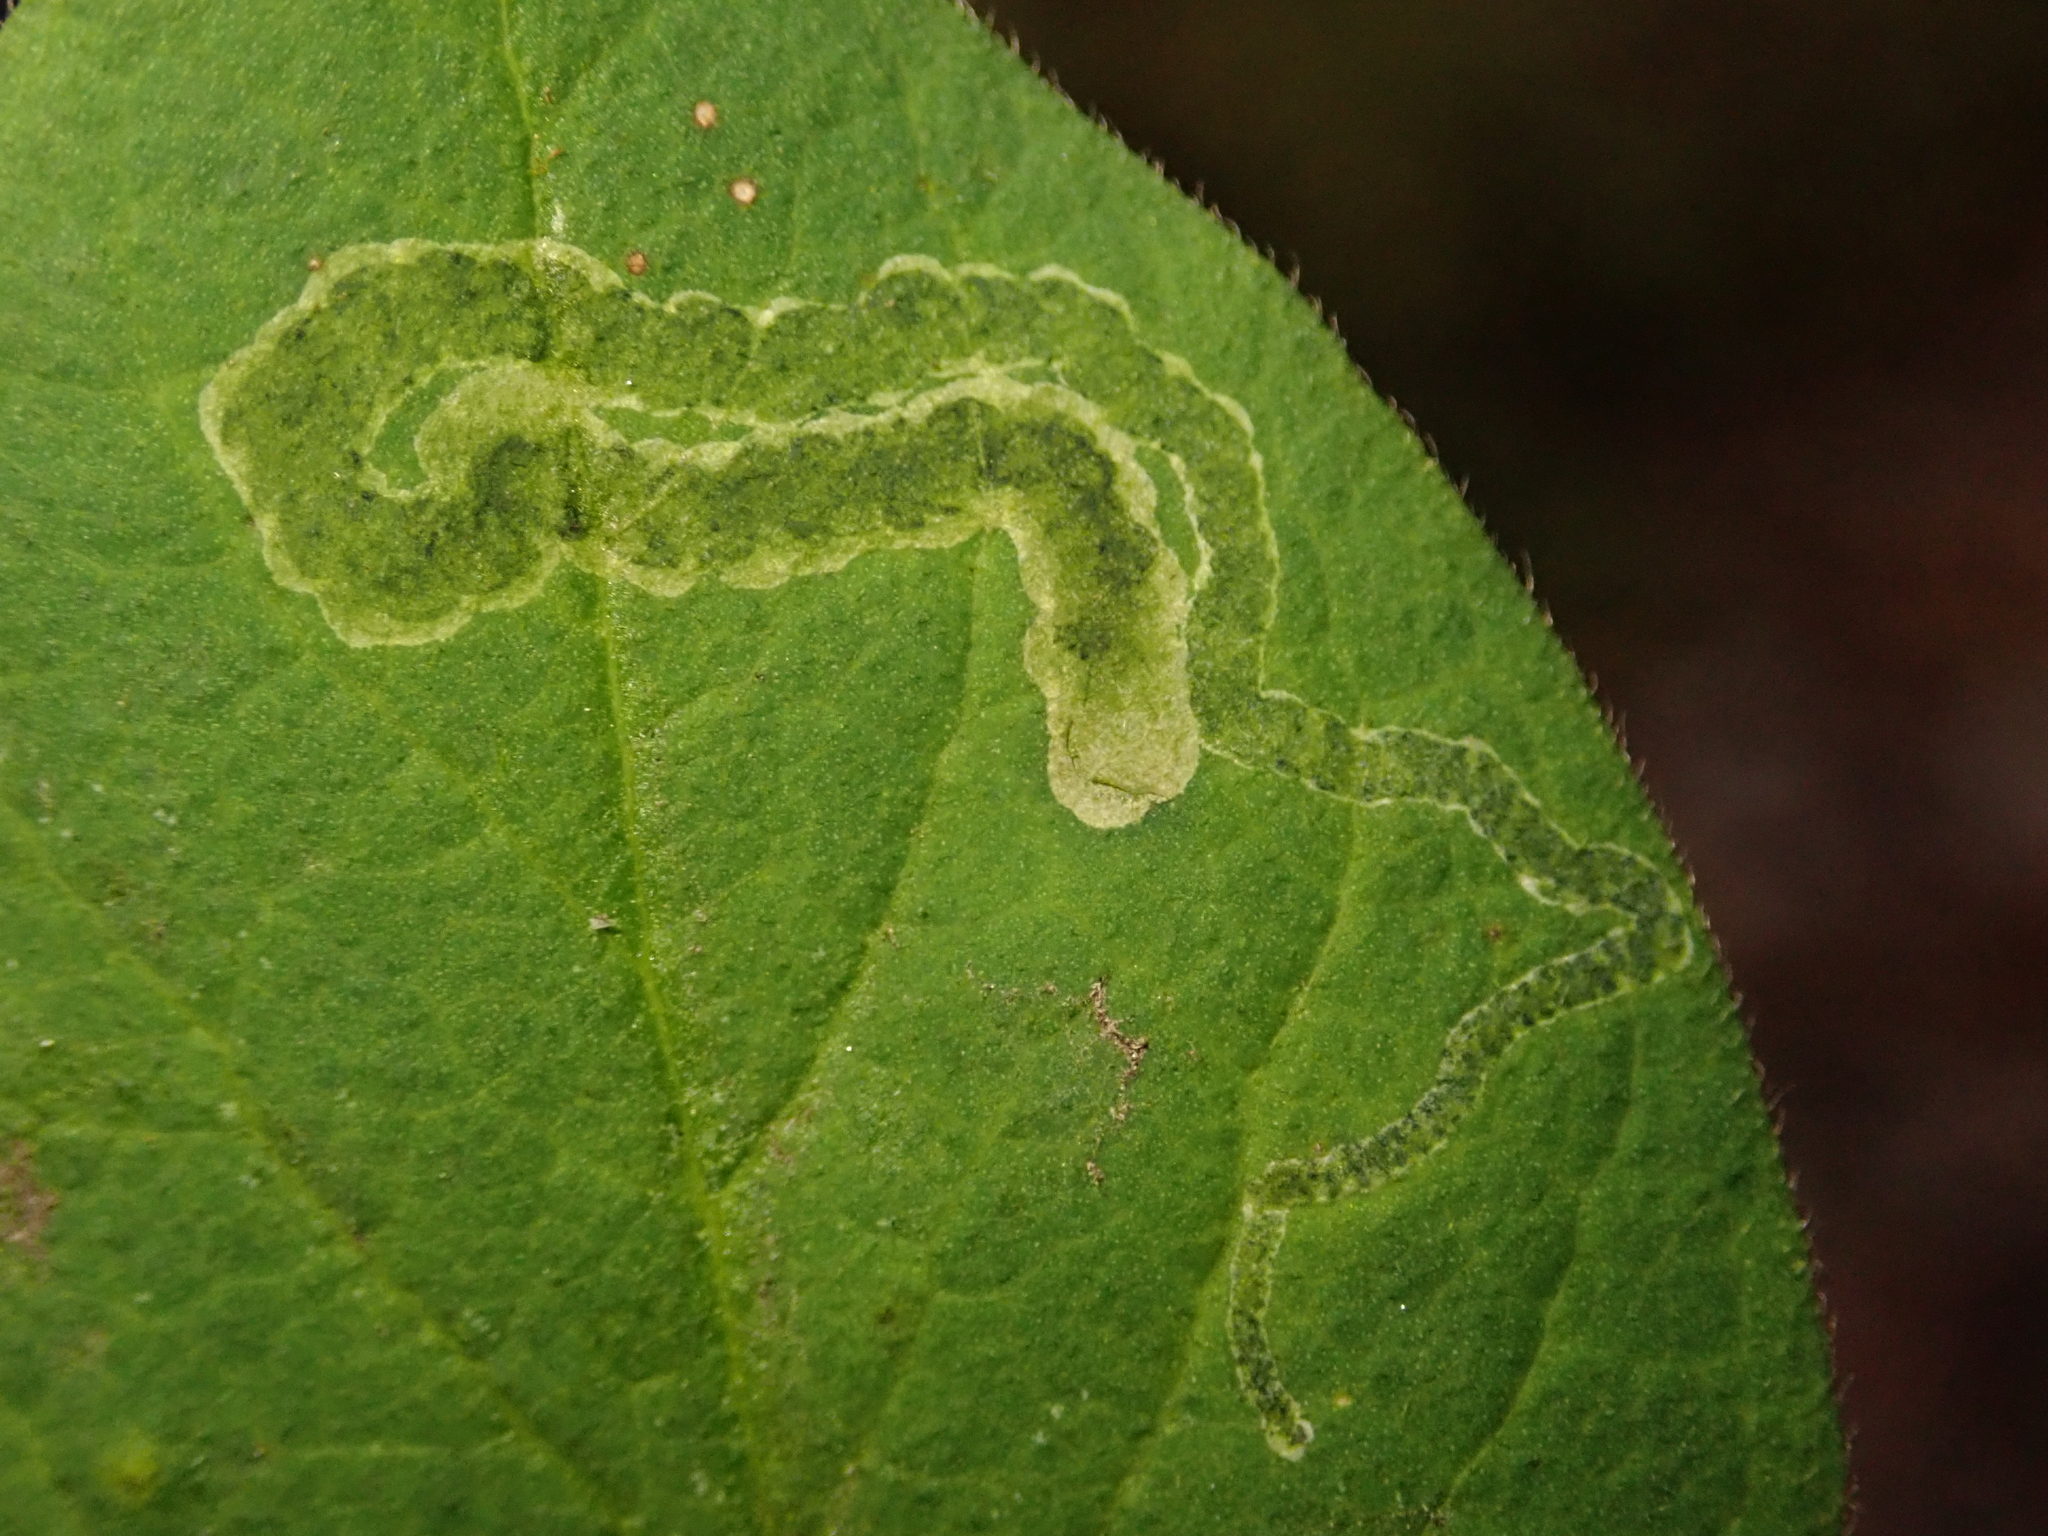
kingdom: Animalia
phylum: Arthropoda
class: Insecta
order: Diptera
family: Agromyzidae
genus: Aulagromyza
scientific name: Aulagromyza luteoscutellata
